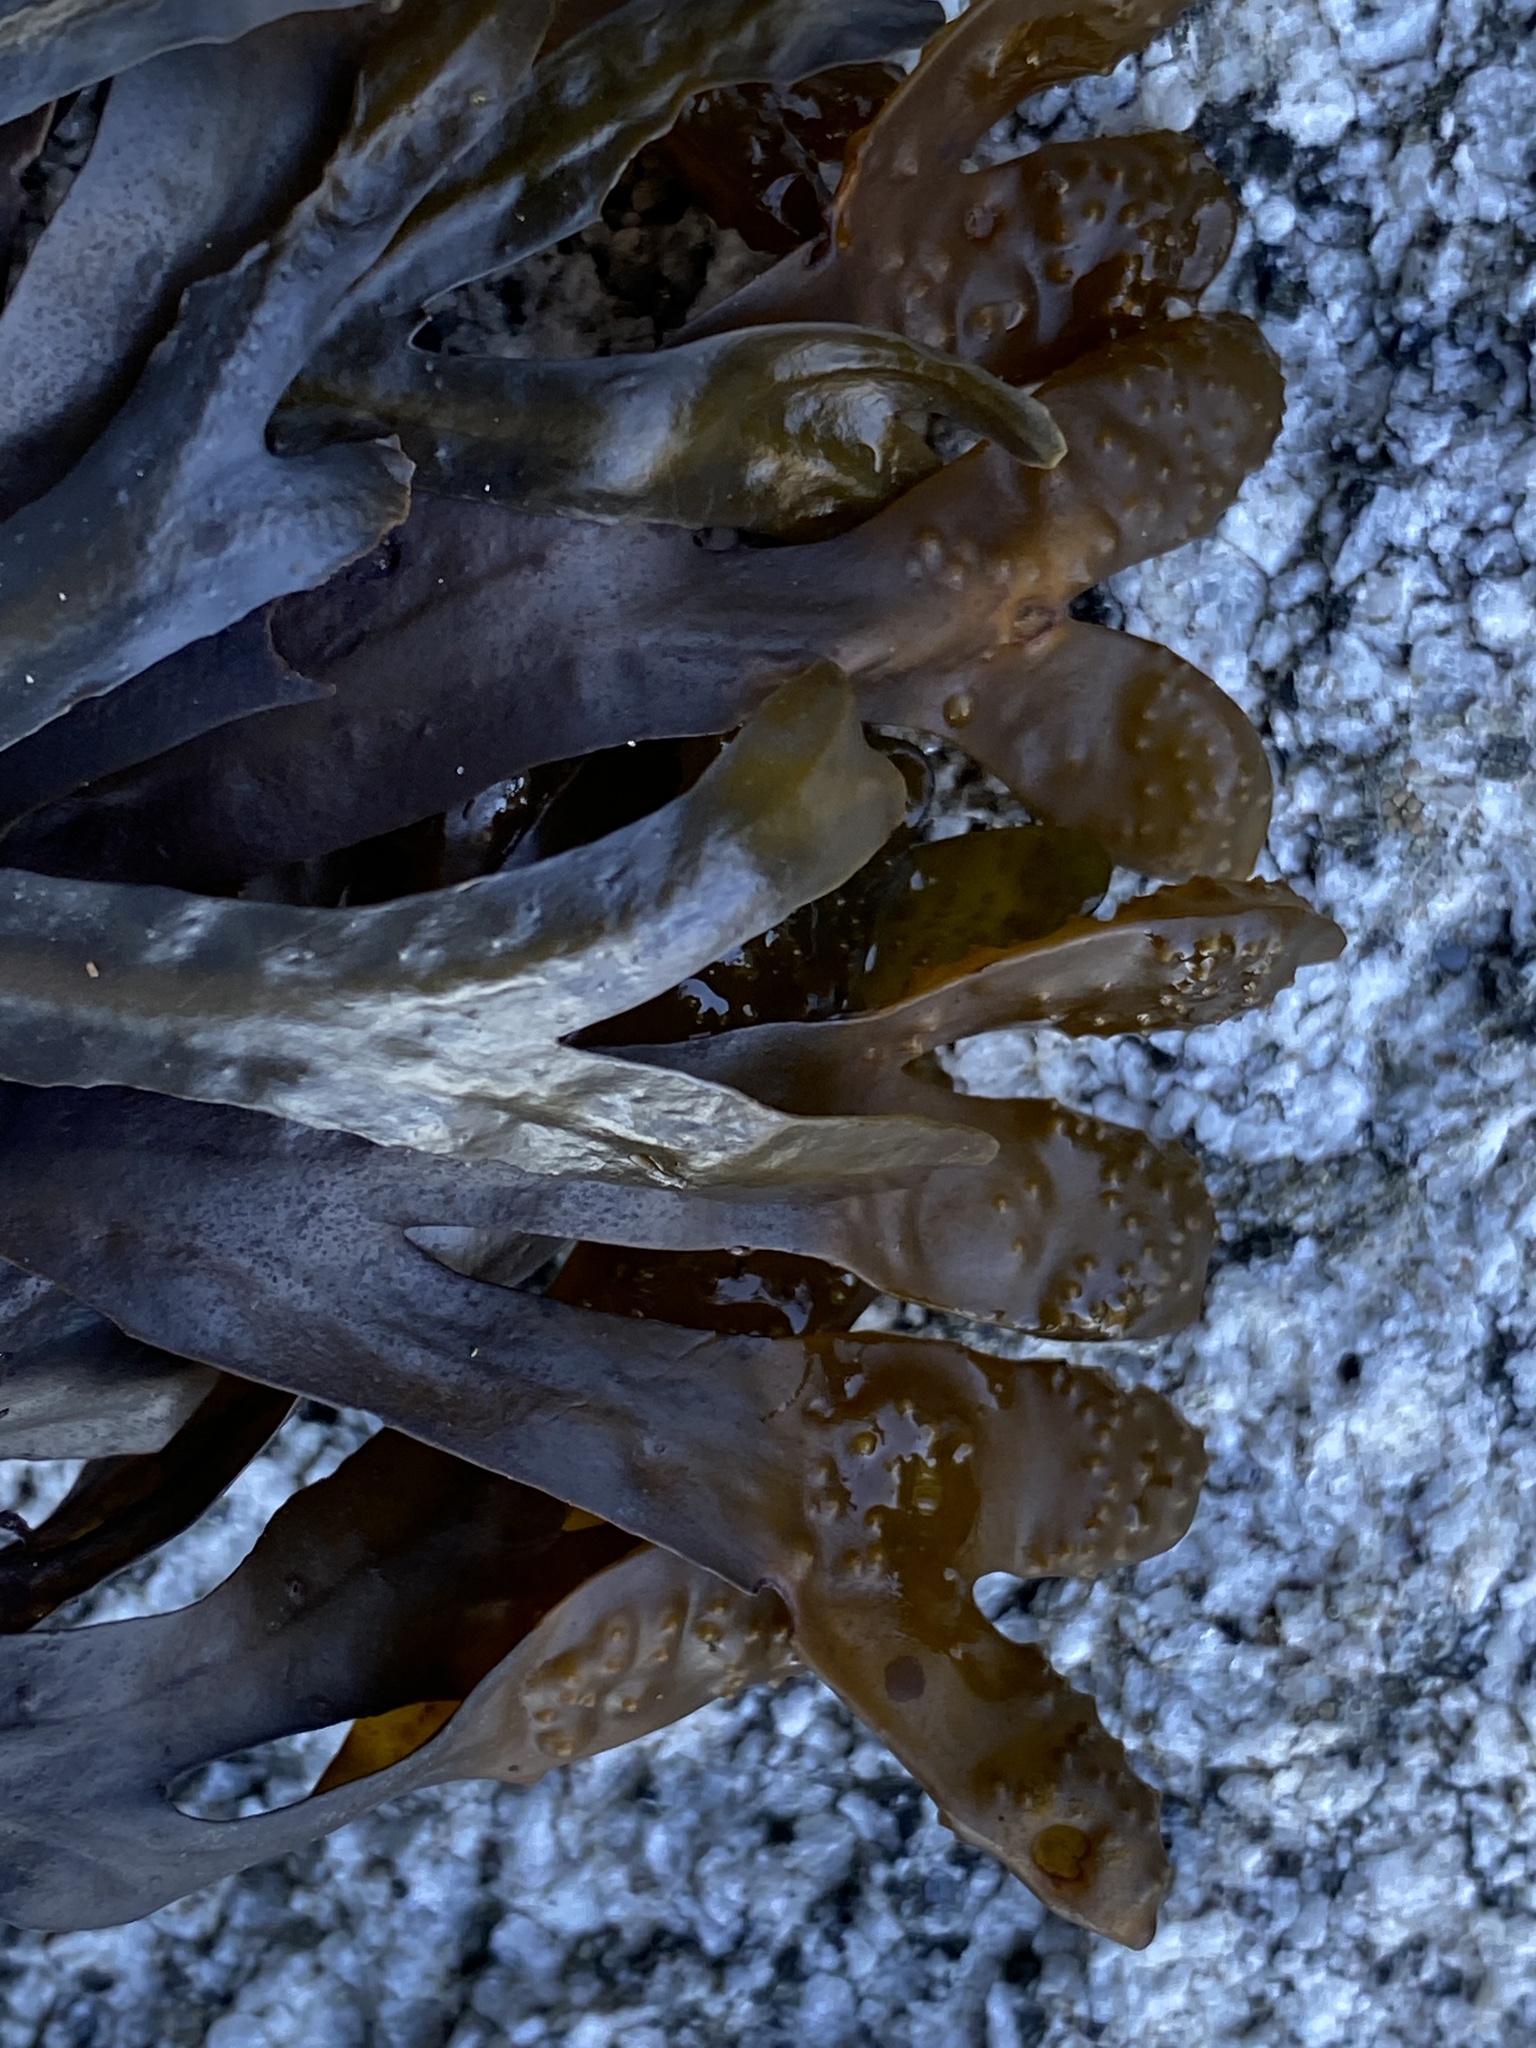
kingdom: Chromista
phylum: Ochrophyta
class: Phaeophyceae
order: Fucales
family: Fucaceae
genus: Fucus
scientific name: Fucus distichus
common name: Rockweed
